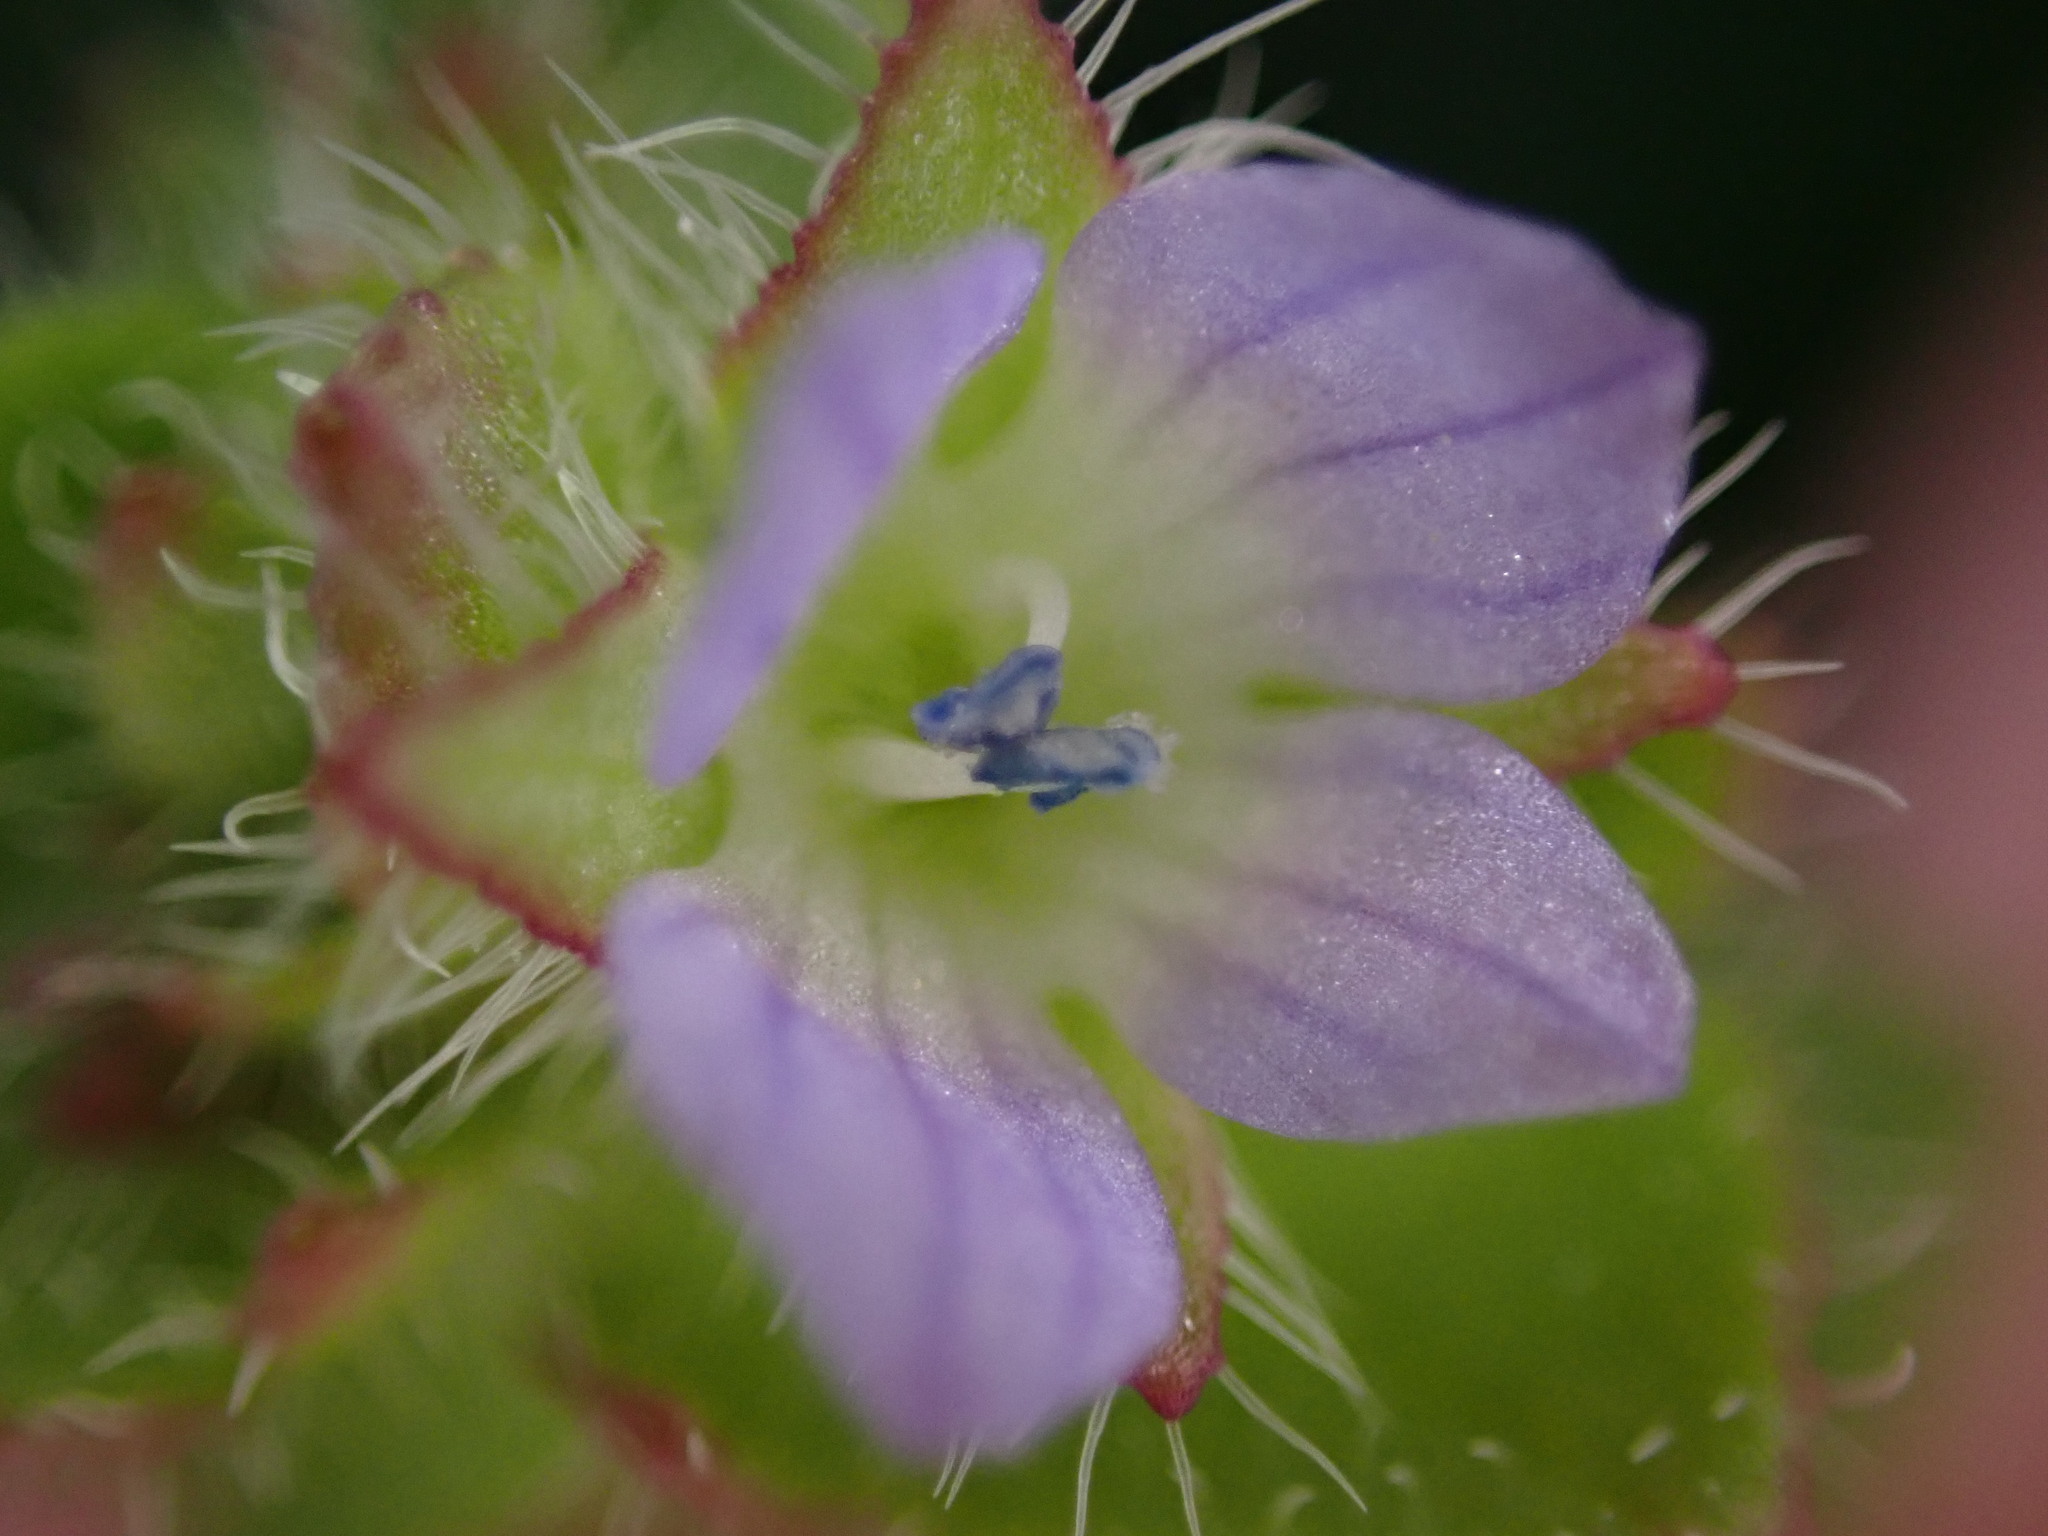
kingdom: Plantae
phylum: Tracheophyta
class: Magnoliopsida
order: Lamiales
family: Plantaginaceae
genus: Veronica
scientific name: Veronica hederifolia
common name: Ivy-leaved speedwell
